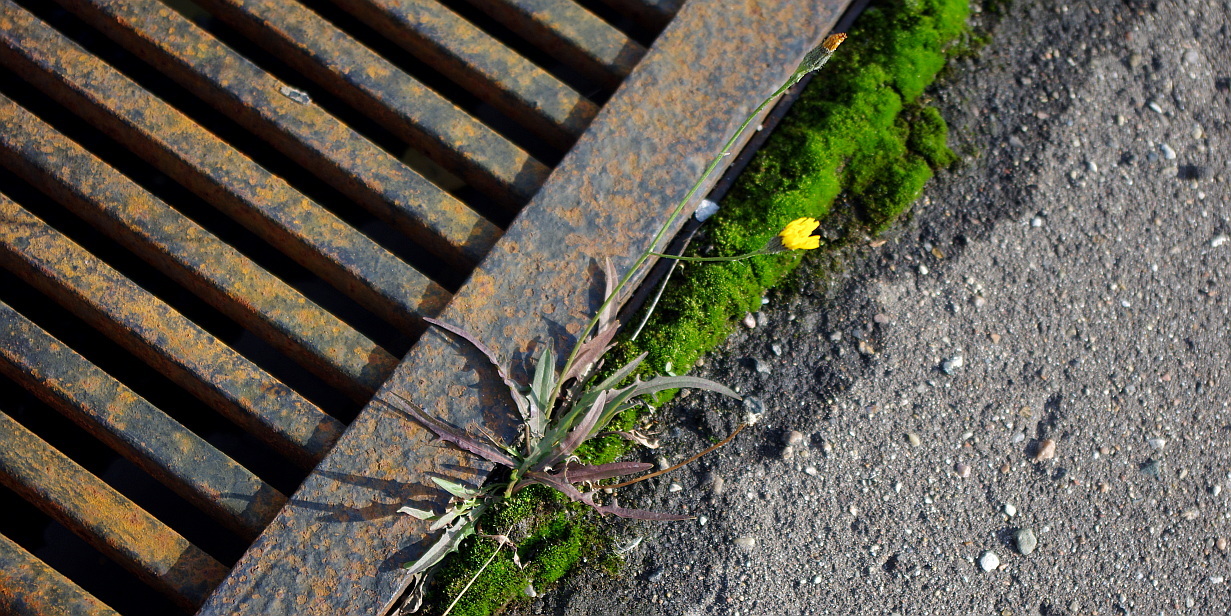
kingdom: Plantae
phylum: Tracheophyta
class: Magnoliopsida
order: Asterales
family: Asteraceae
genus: Scorzoneroides
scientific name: Scorzoneroides autumnalis
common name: Autumn hawkbit
